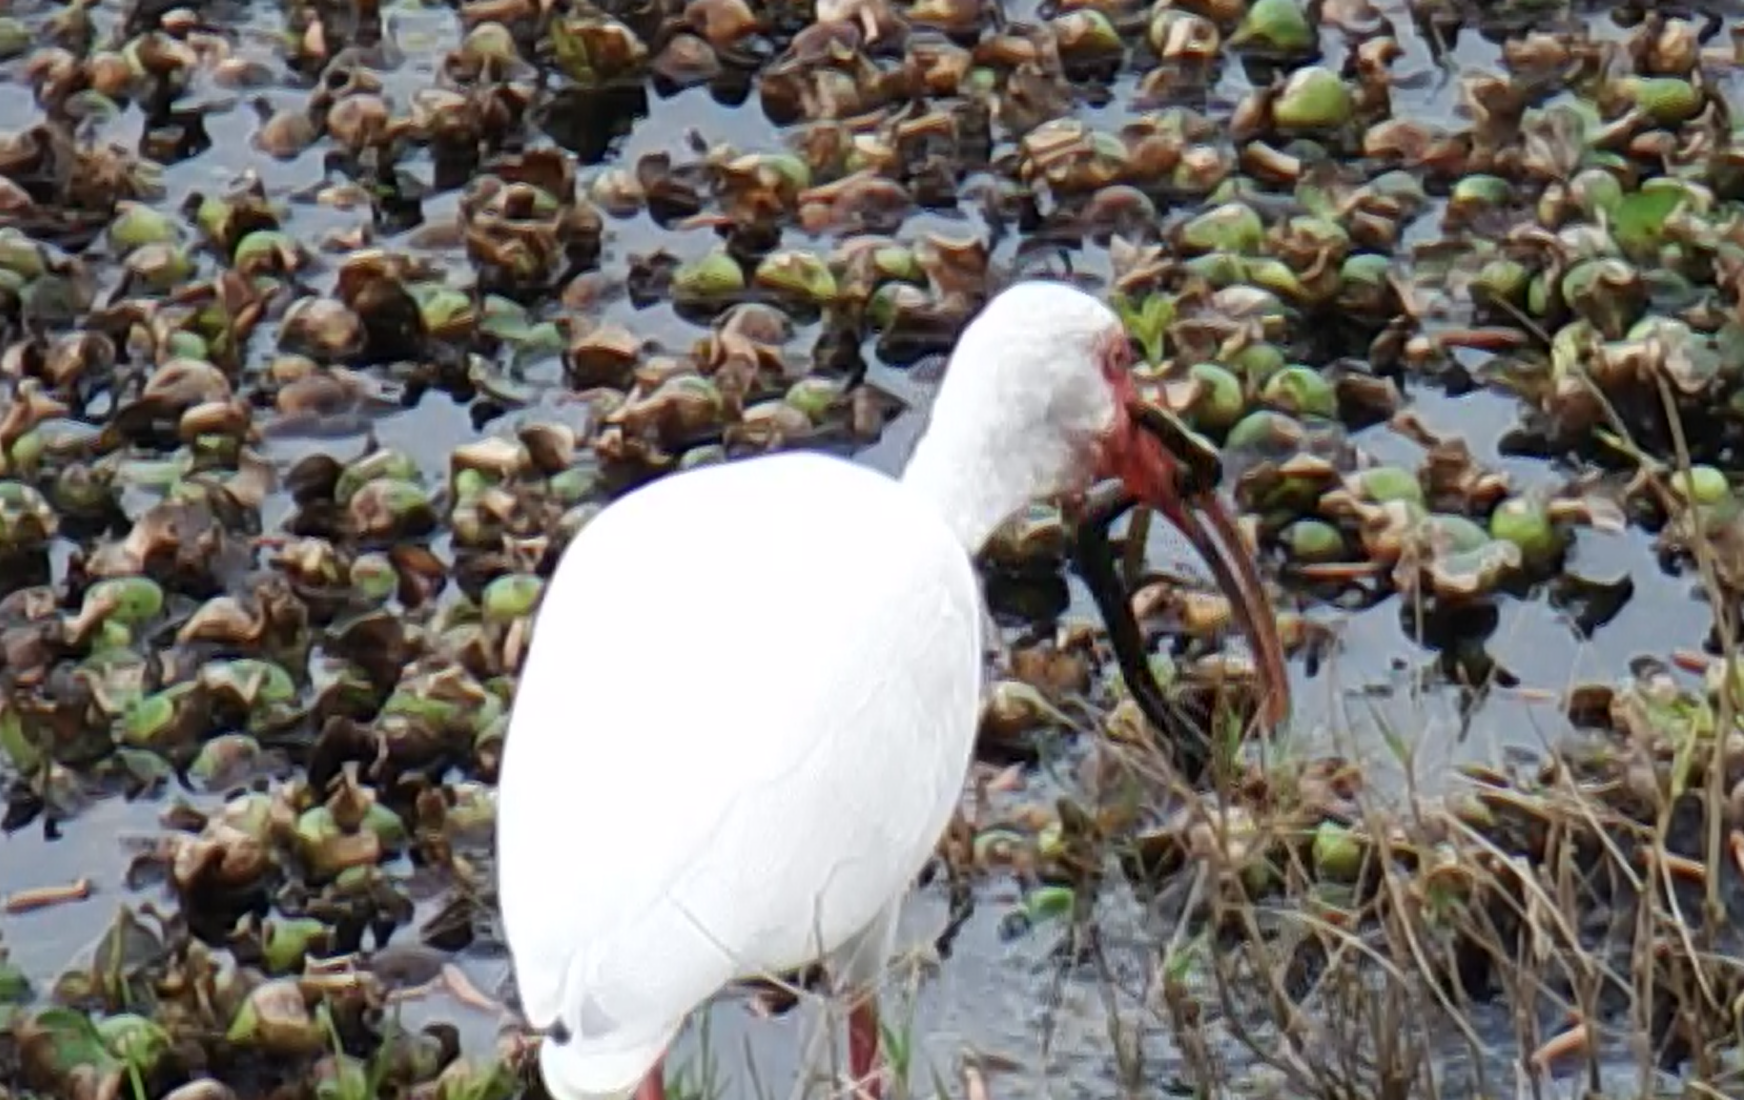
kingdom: Animalia
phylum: Chordata
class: Squamata
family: Colubridae
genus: Coluber
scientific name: Coluber constrictor
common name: Eastern racer
